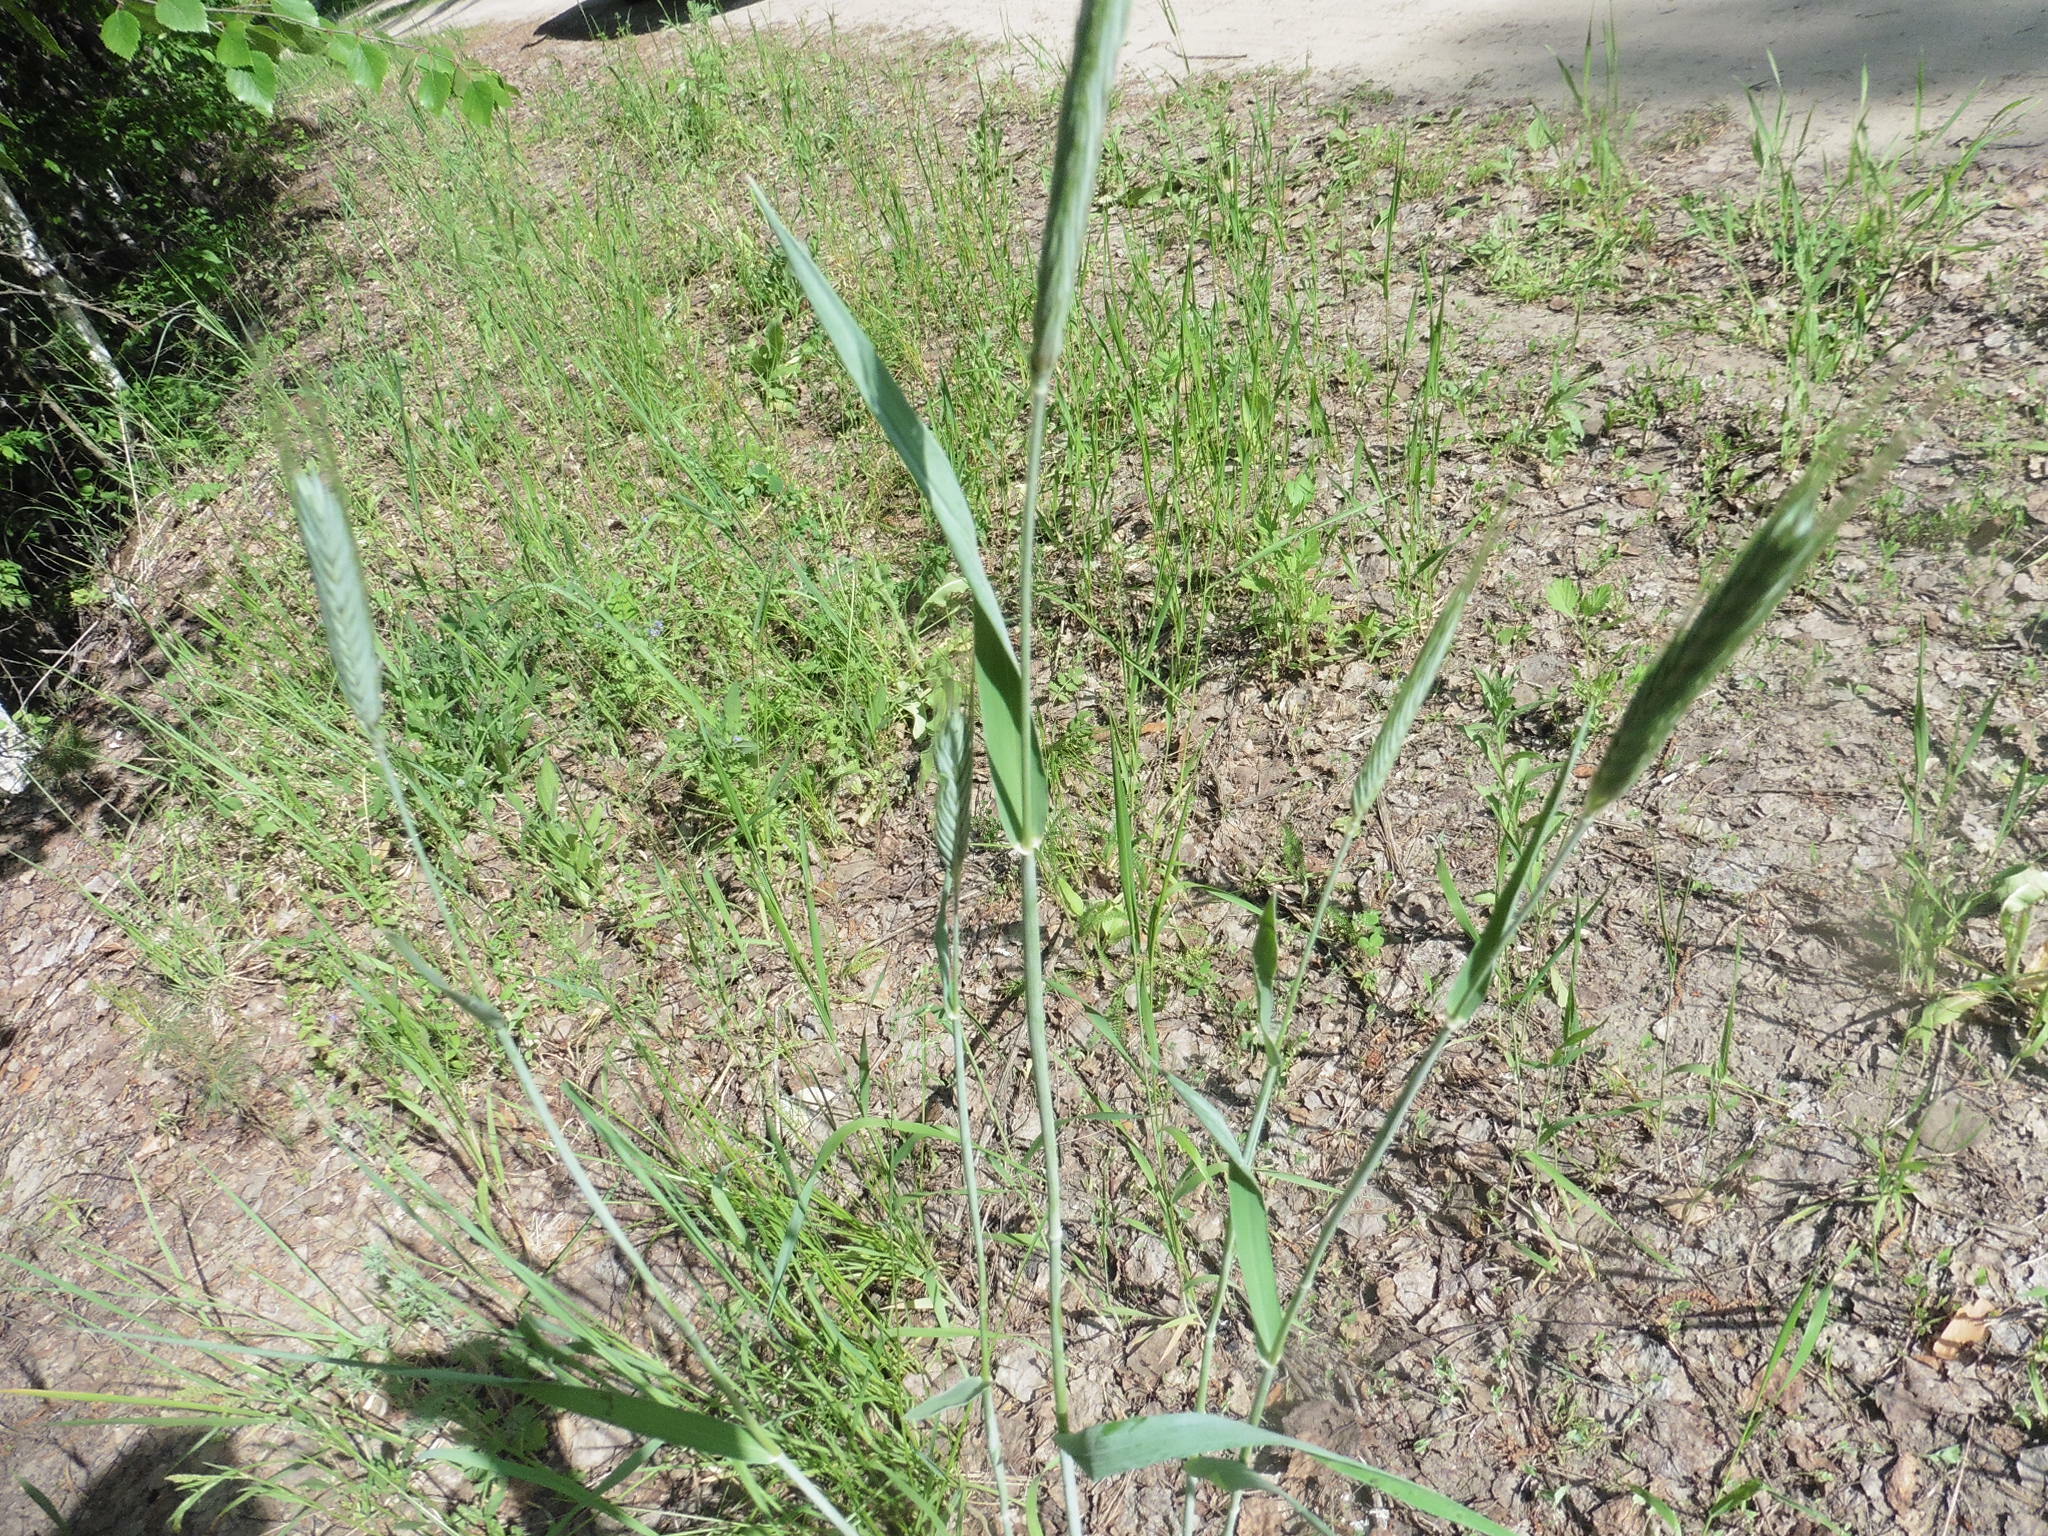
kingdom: Plantae
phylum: Tracheophyta
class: Liliopsida
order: Poales
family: Poaceae
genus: Secale
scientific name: Secale cereale
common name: Rye
